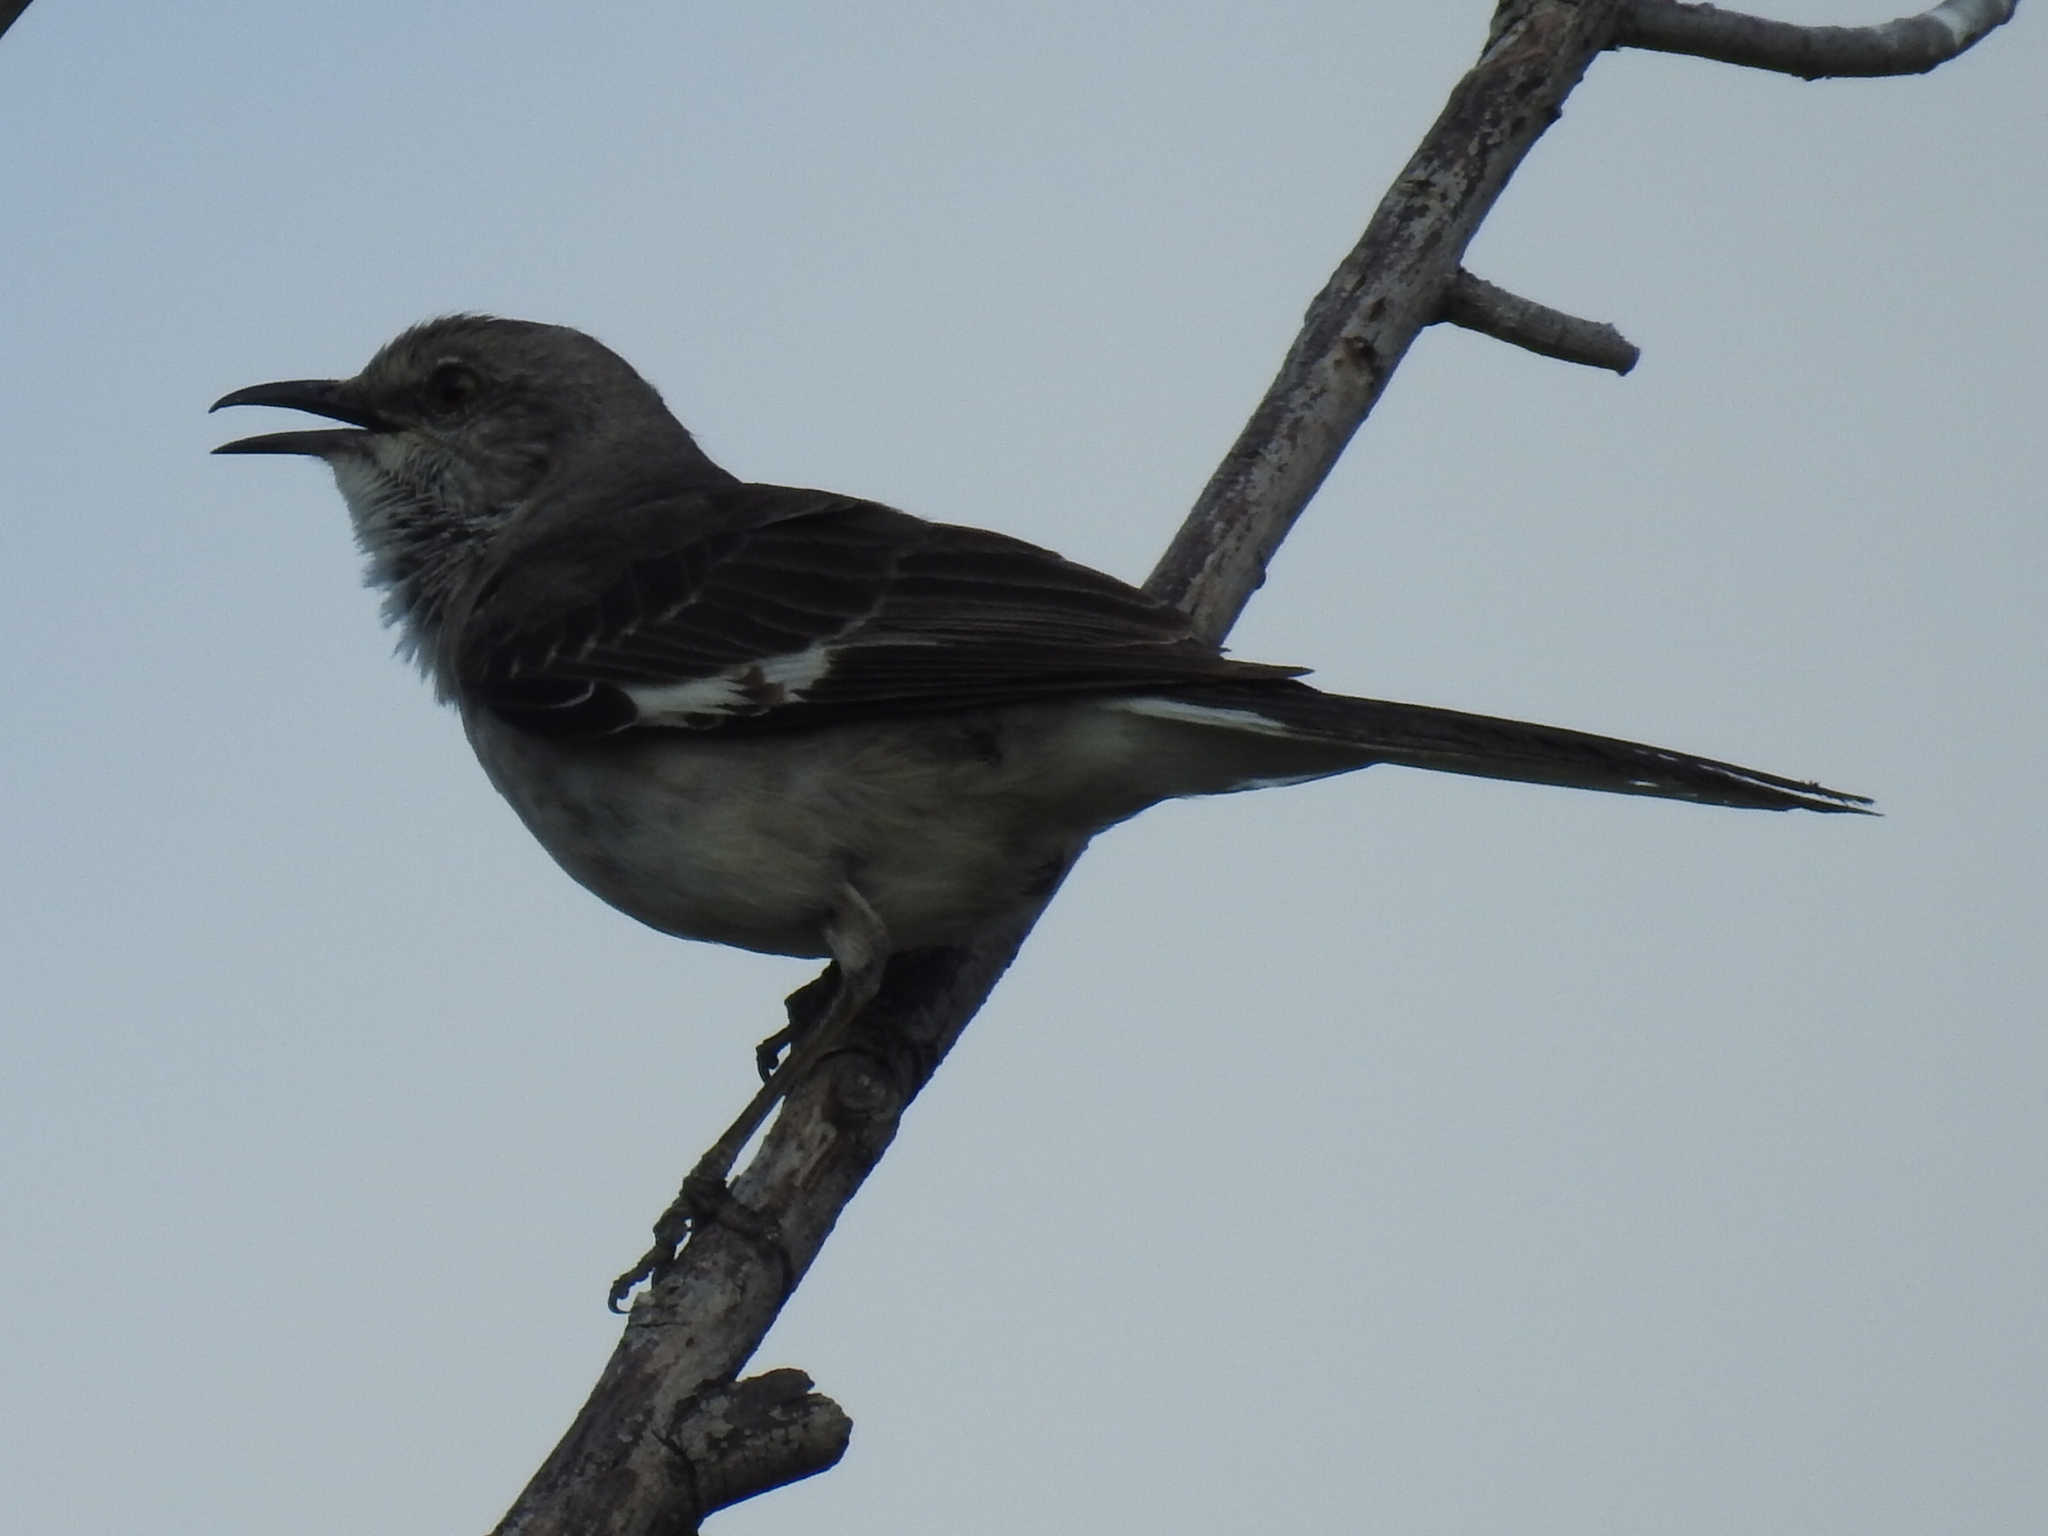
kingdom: Animalia
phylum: Chordata
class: Aves
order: Passeriformes
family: Mimidae
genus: Mimus
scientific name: Mimus polyglottos
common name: Northern mockingbird
